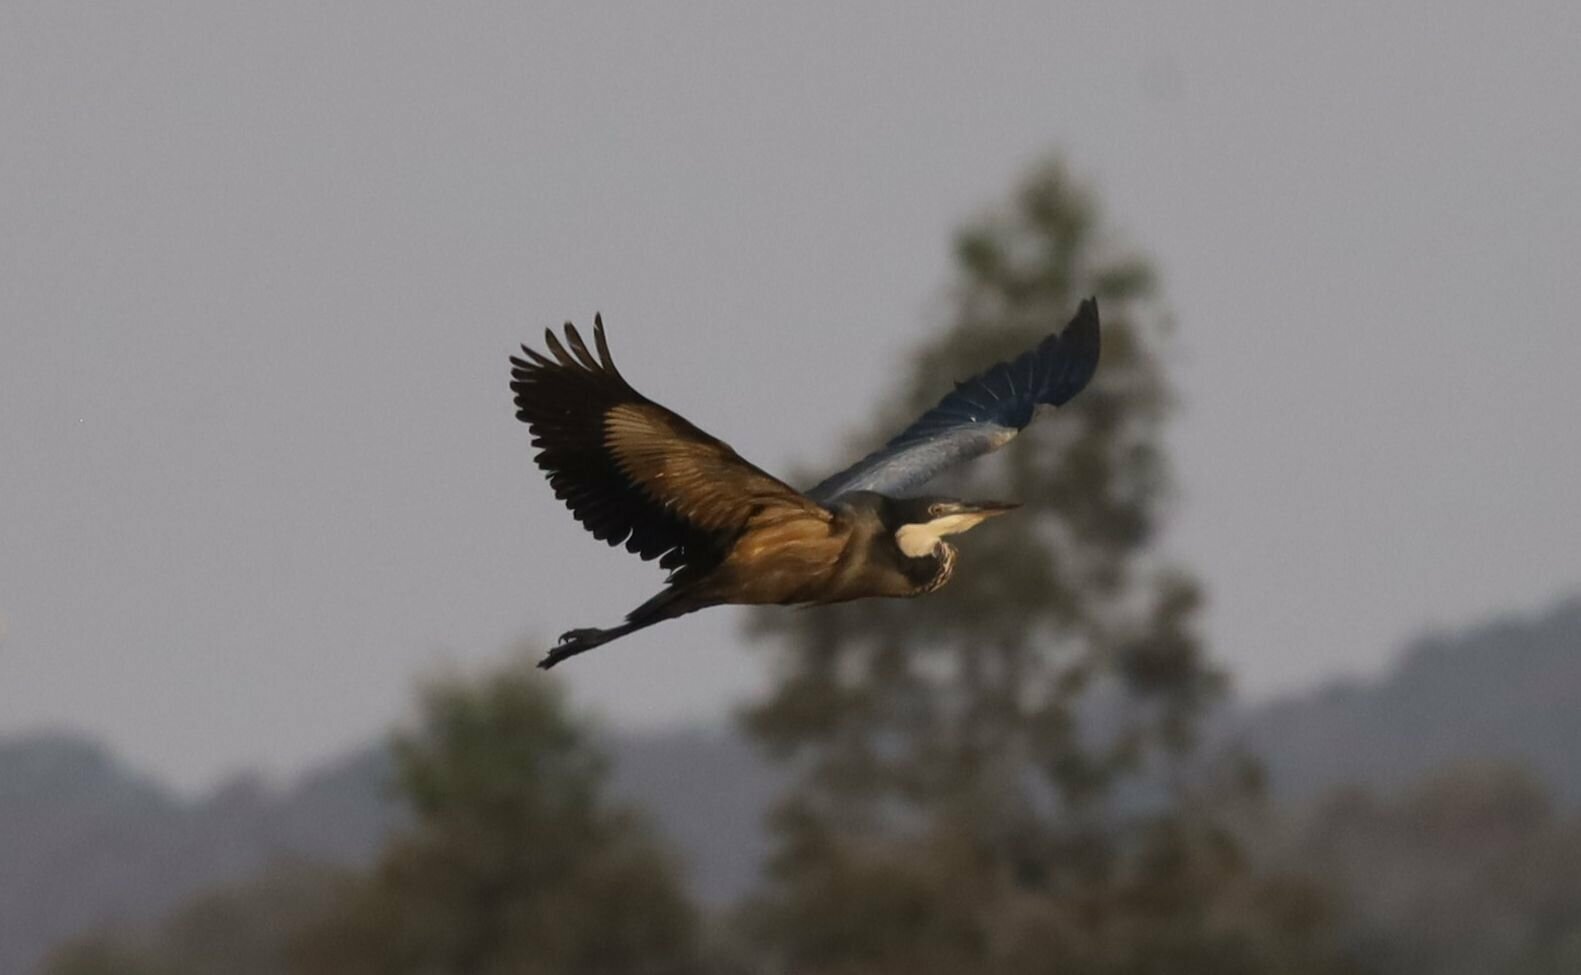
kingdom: Animalia
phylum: Chordata
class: Aves
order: Pelecaniformes
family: Ardeidae
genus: Ardea
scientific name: Ardea melanocephala
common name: Black-headed heron
